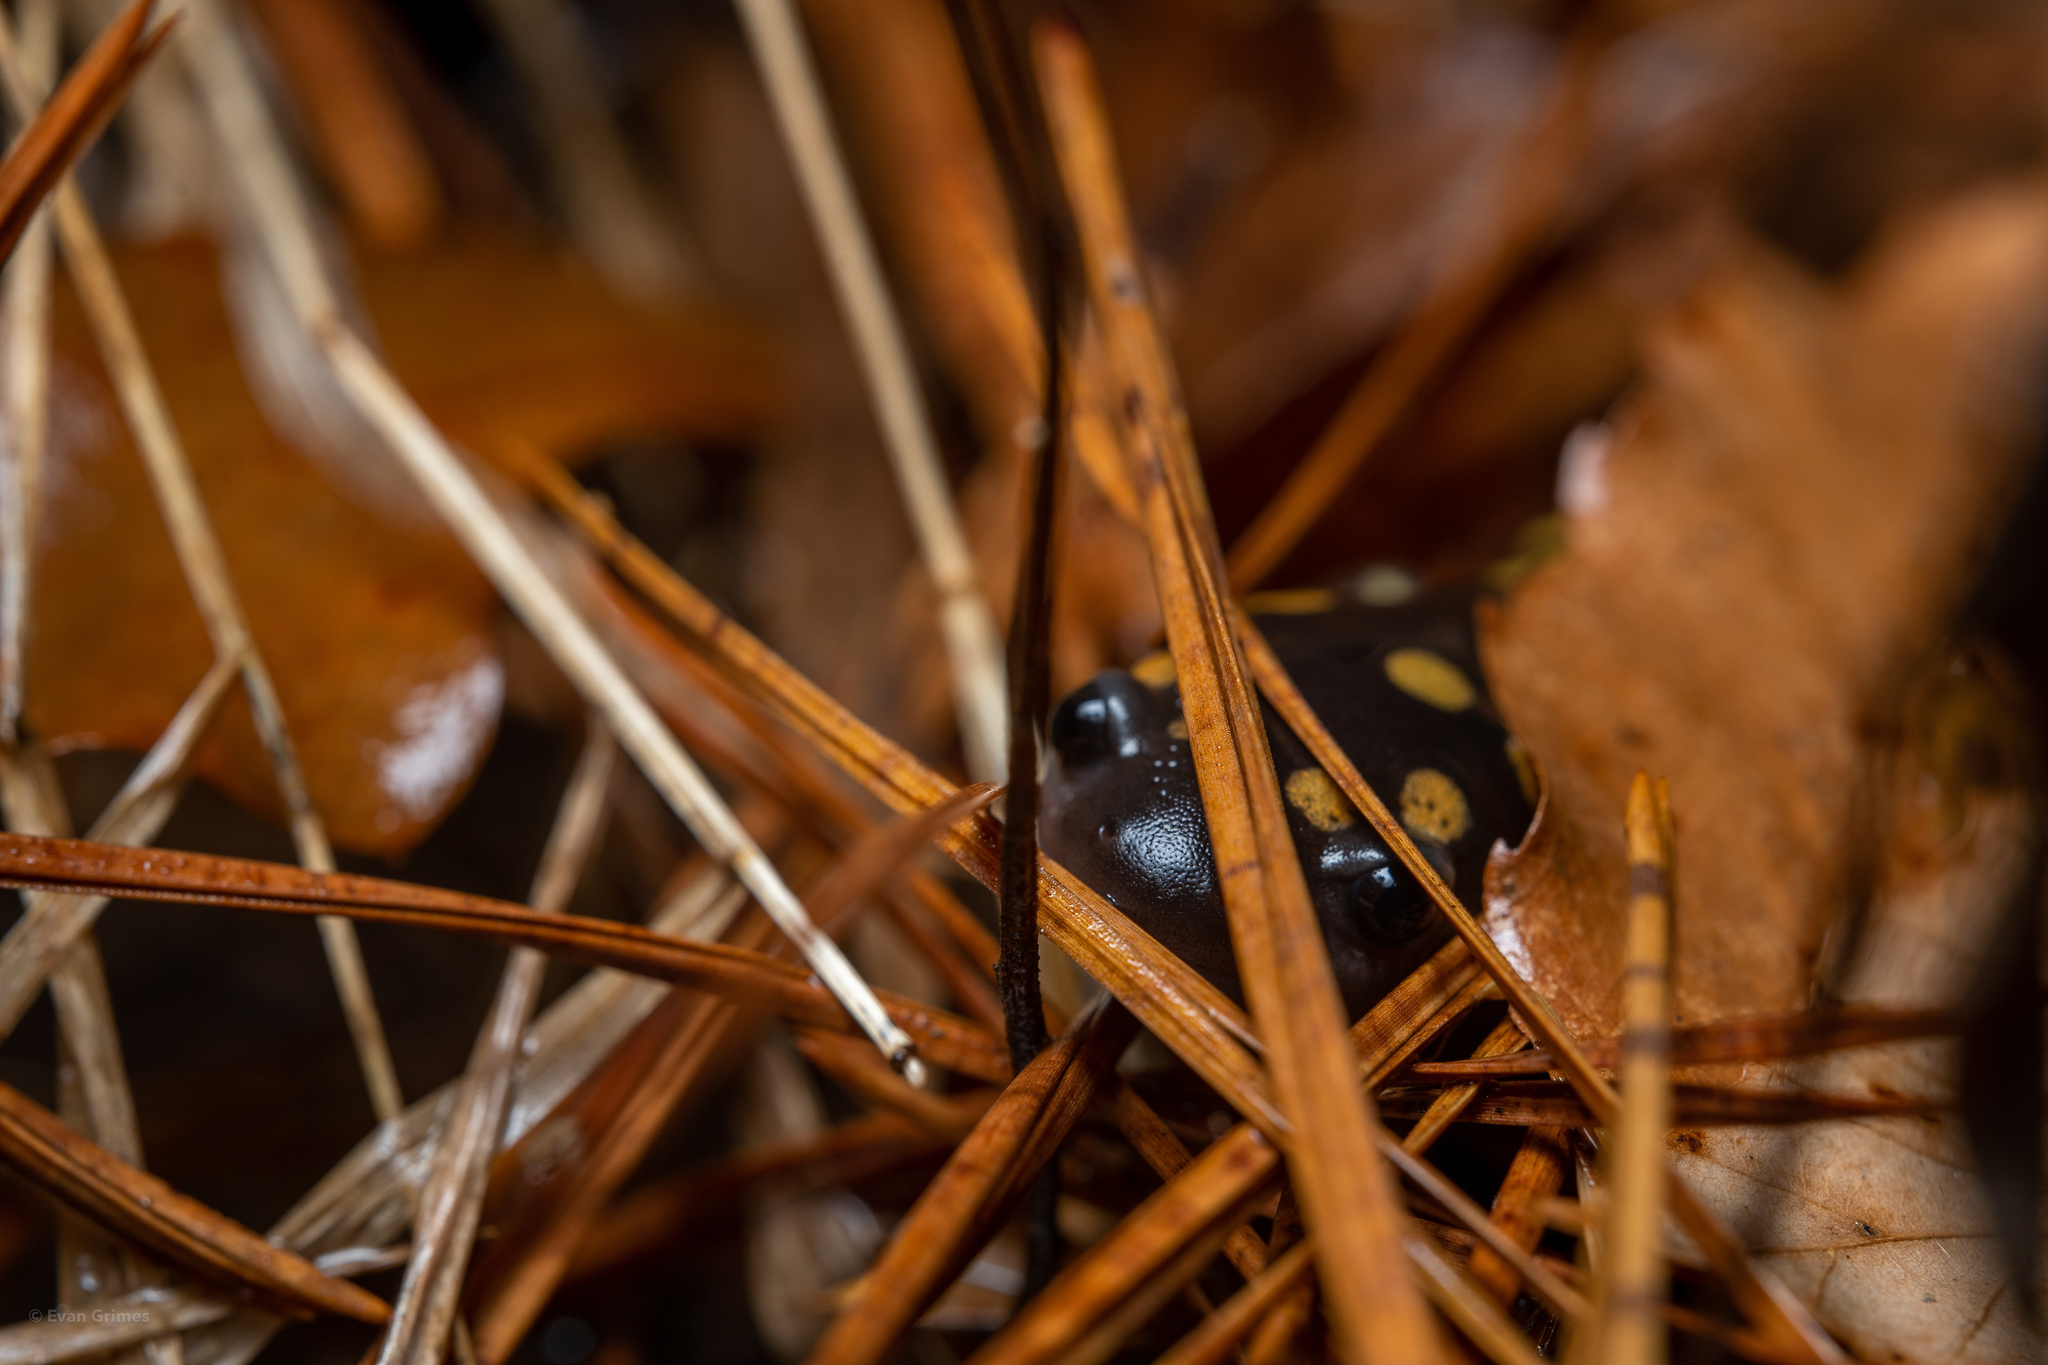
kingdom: Animalia
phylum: Chordata
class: Amphibia
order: Caudata
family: Ambystomatidae
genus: Ambystoma
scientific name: Ambystoma maculatum
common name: Spotted salamander
